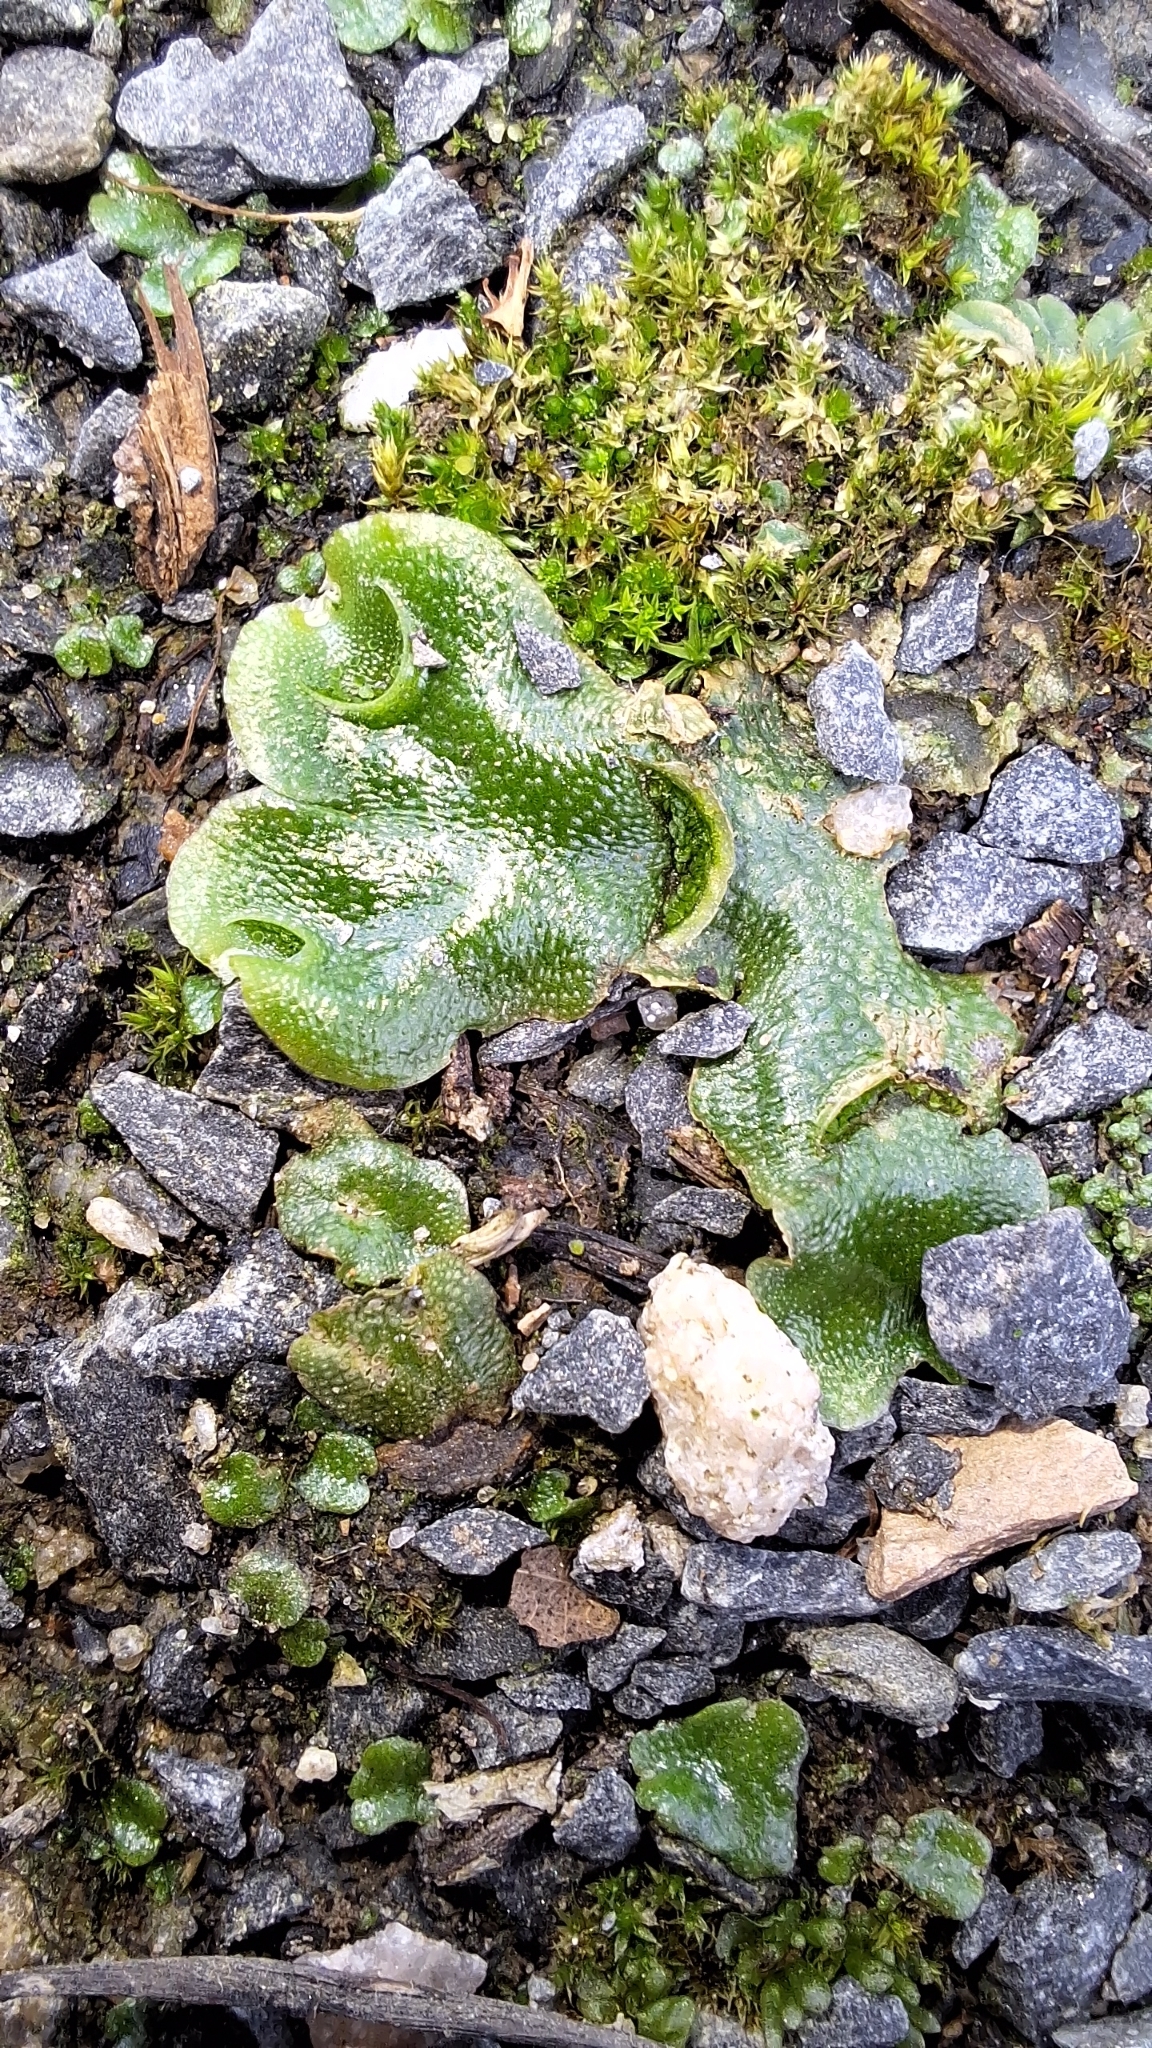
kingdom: Plantae
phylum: Marchantiophyta
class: Marchantiopsida
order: Lunulariales
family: Lunulariaceae
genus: Lunularia
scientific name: Lunularia cruciata
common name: Crescent-cup liverwort
